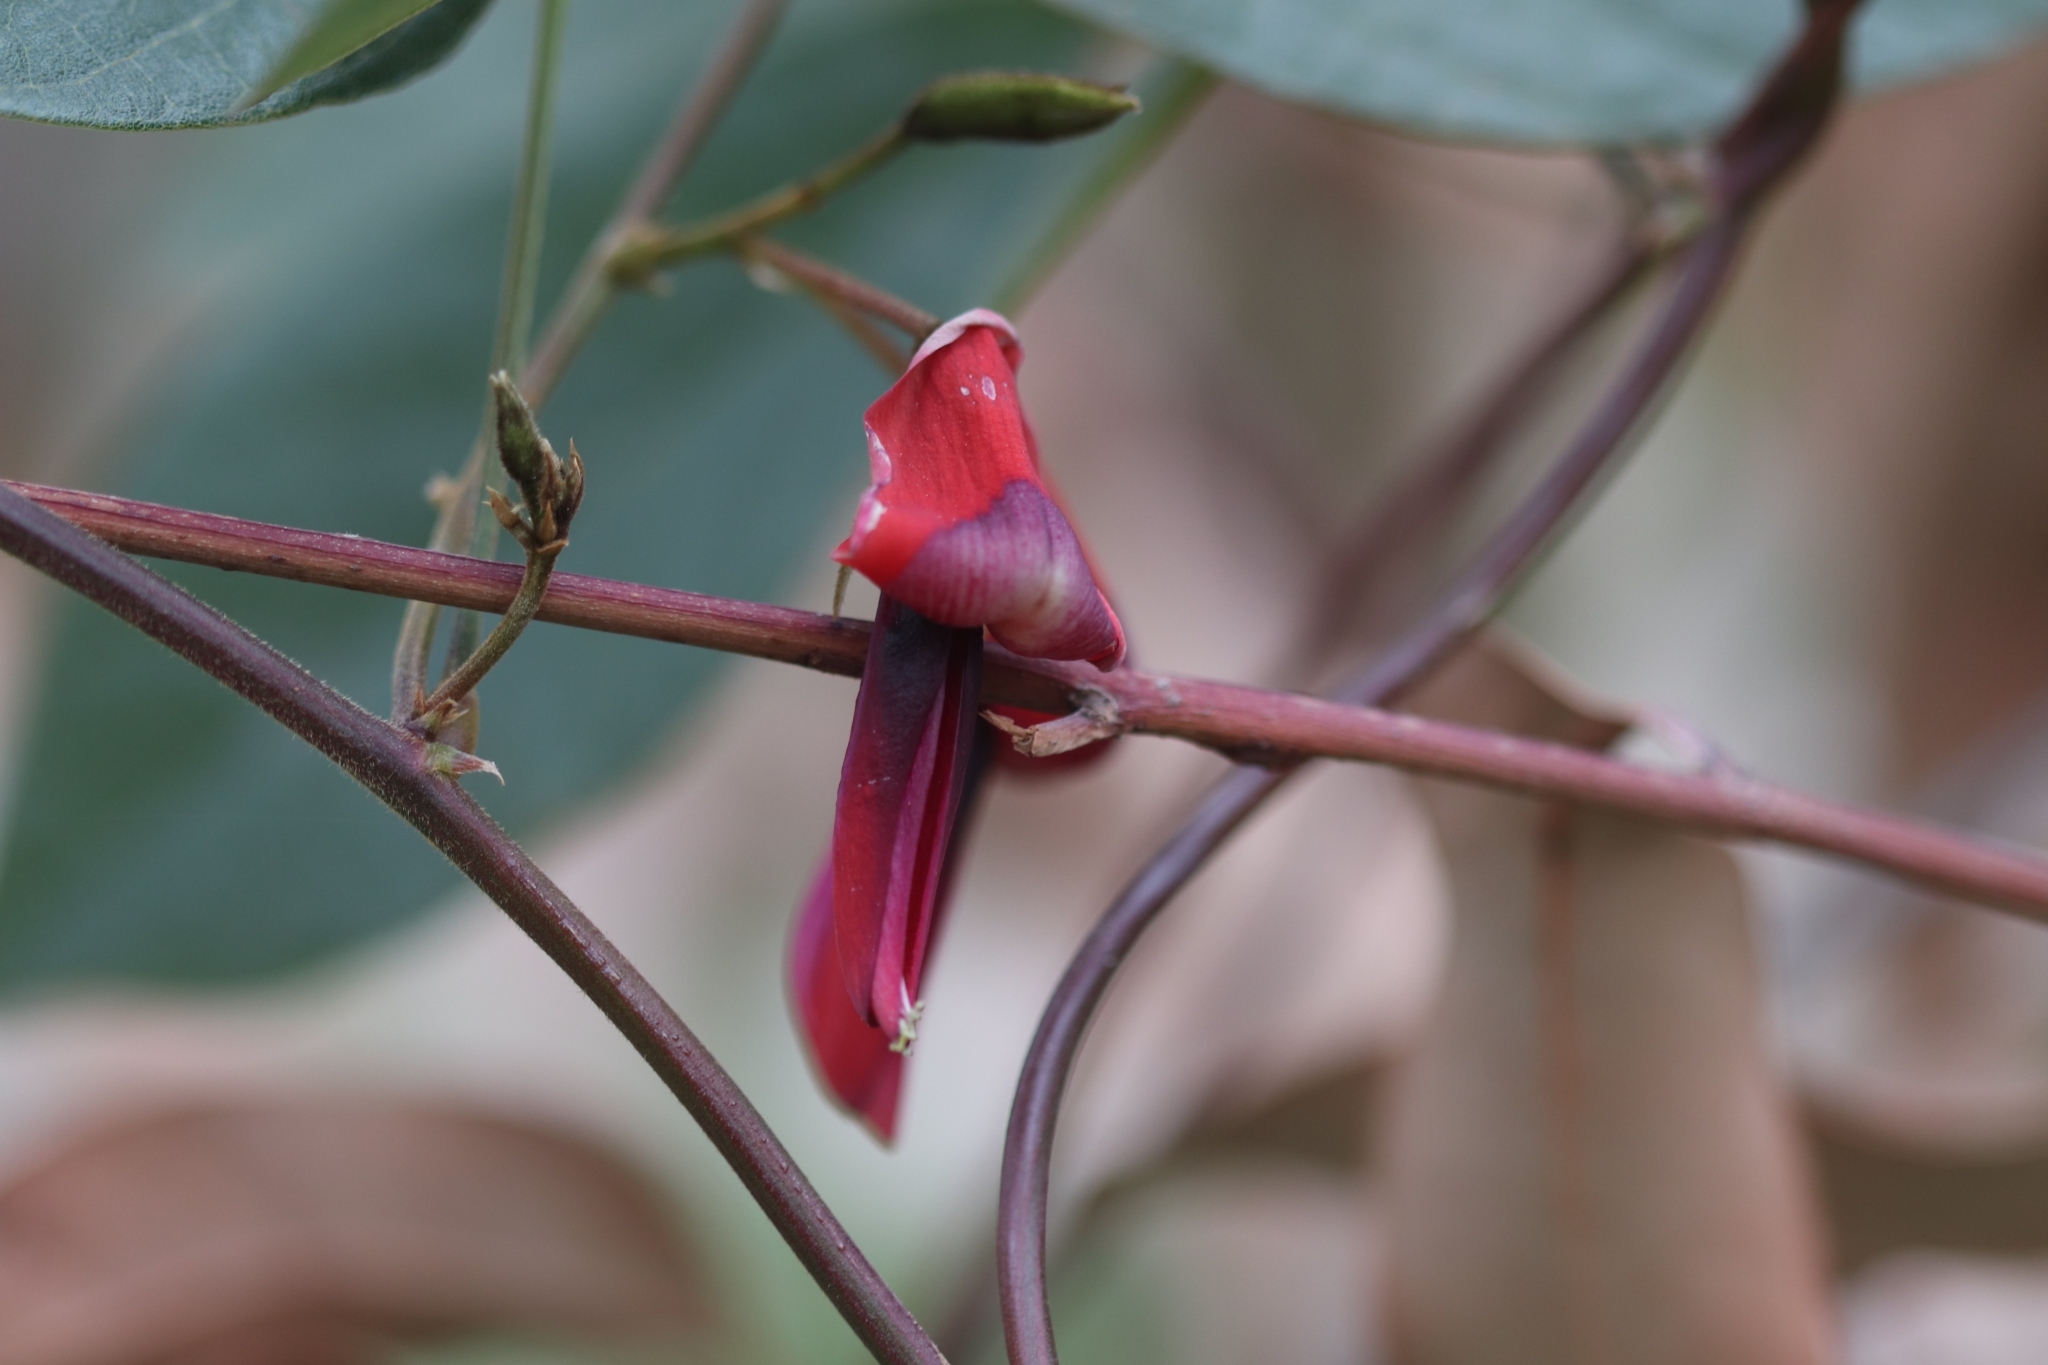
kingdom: Plantae
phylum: Tracheophyta
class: Magnoliopsida
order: Fabales
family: Fabaceae
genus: Kennedia
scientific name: Kennedia rubicunda
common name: Red kennedy-pea
